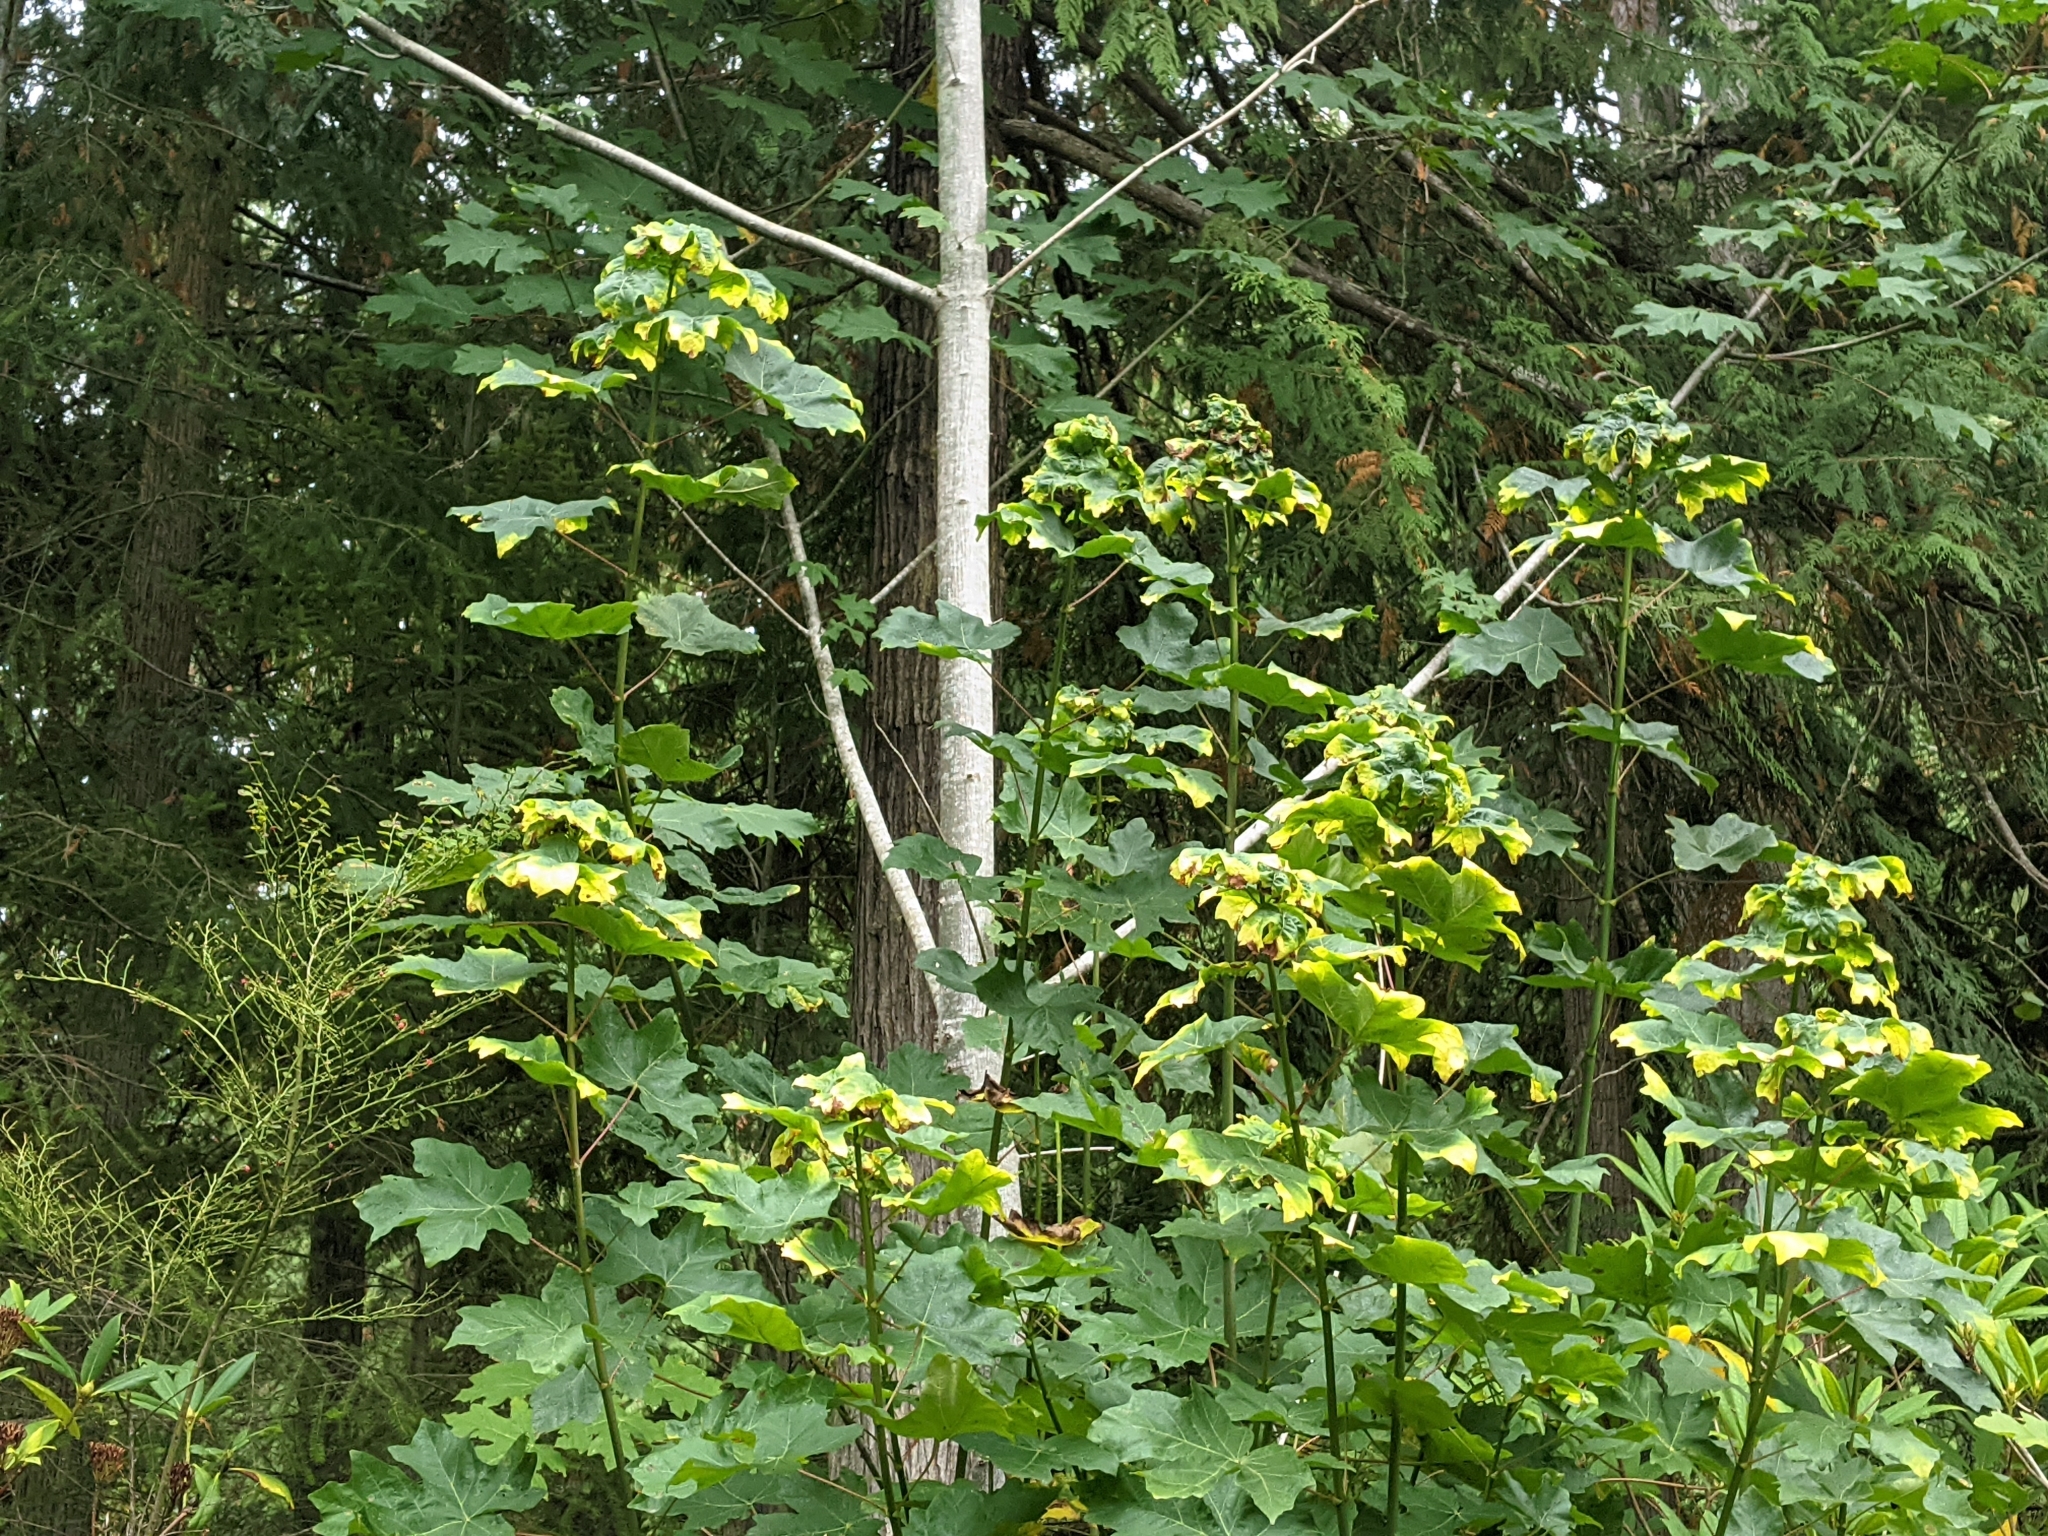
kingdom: Plantae
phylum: Tracheophyta
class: Magnoliopsida
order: Sapindales
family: Sapindaceae
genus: Acer
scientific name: Acer macrophyllum
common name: Oregon maple
